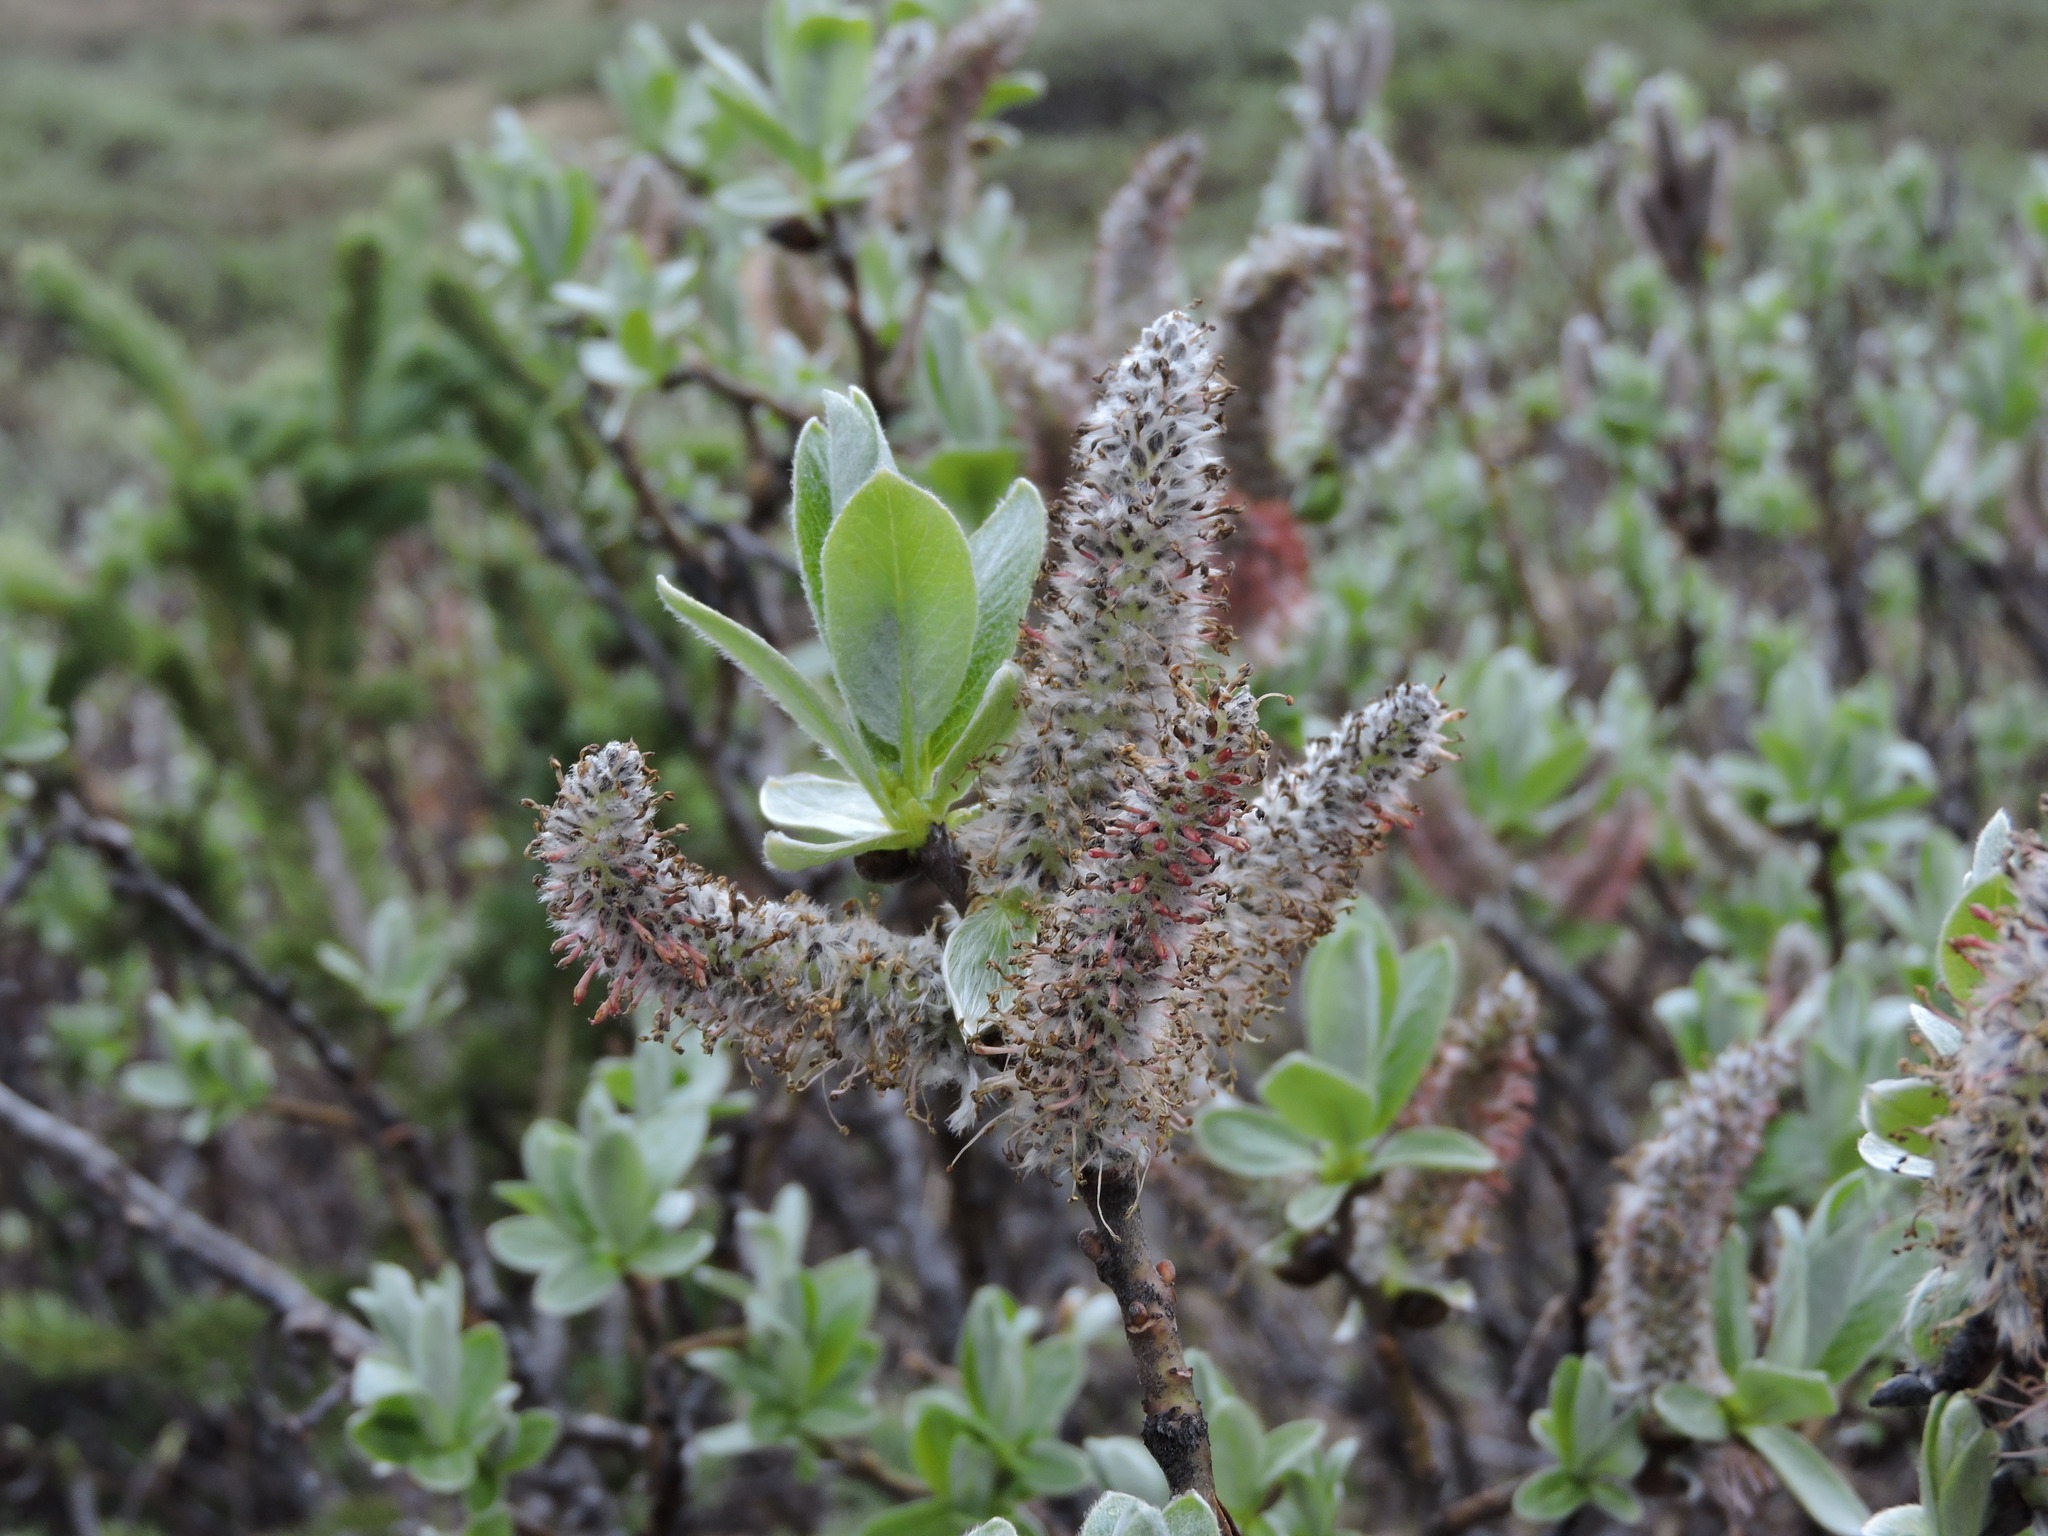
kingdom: Plantae
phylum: Tracheophyta
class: Magnoliopsida
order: Malpighiales
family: Salicaceae
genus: Salix
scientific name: Salix barrattiana
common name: Barratt's willow
